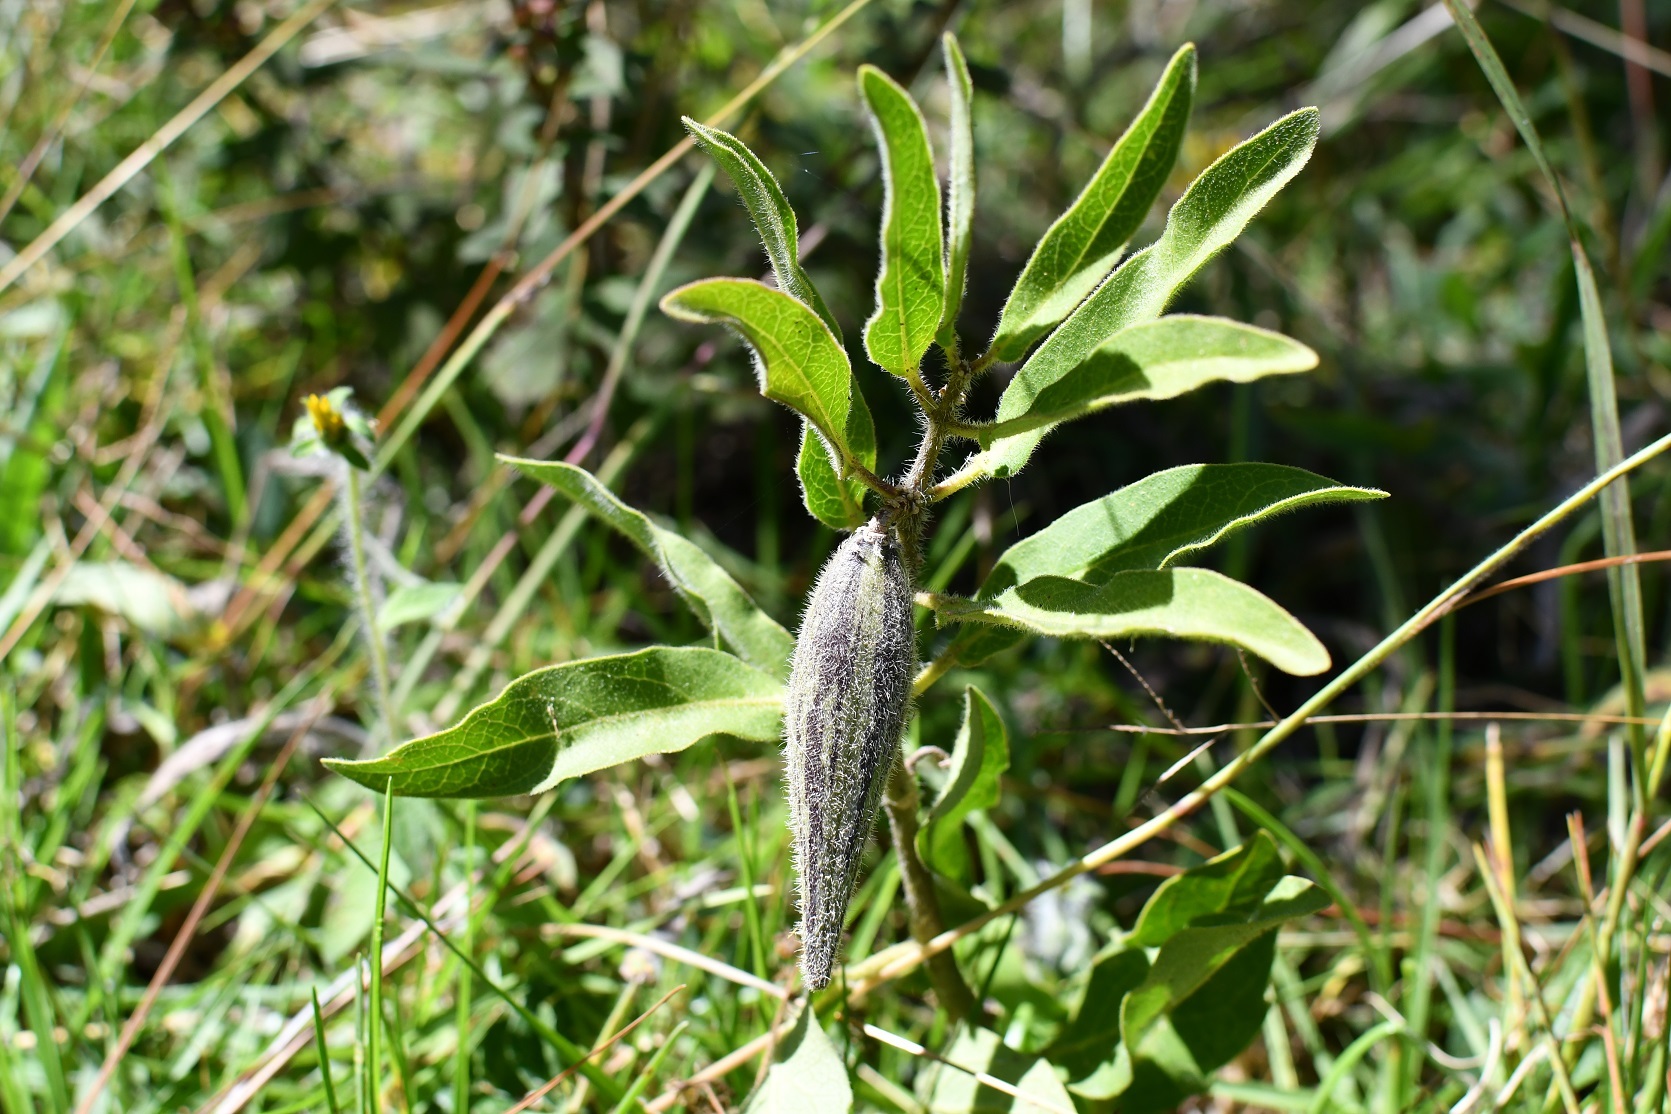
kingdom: Plantae
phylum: Tracheophyta
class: Magnoliopsida
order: Gentianales
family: Apocynaceae
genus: Pherotrichis
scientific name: Pherotrichis villosa
